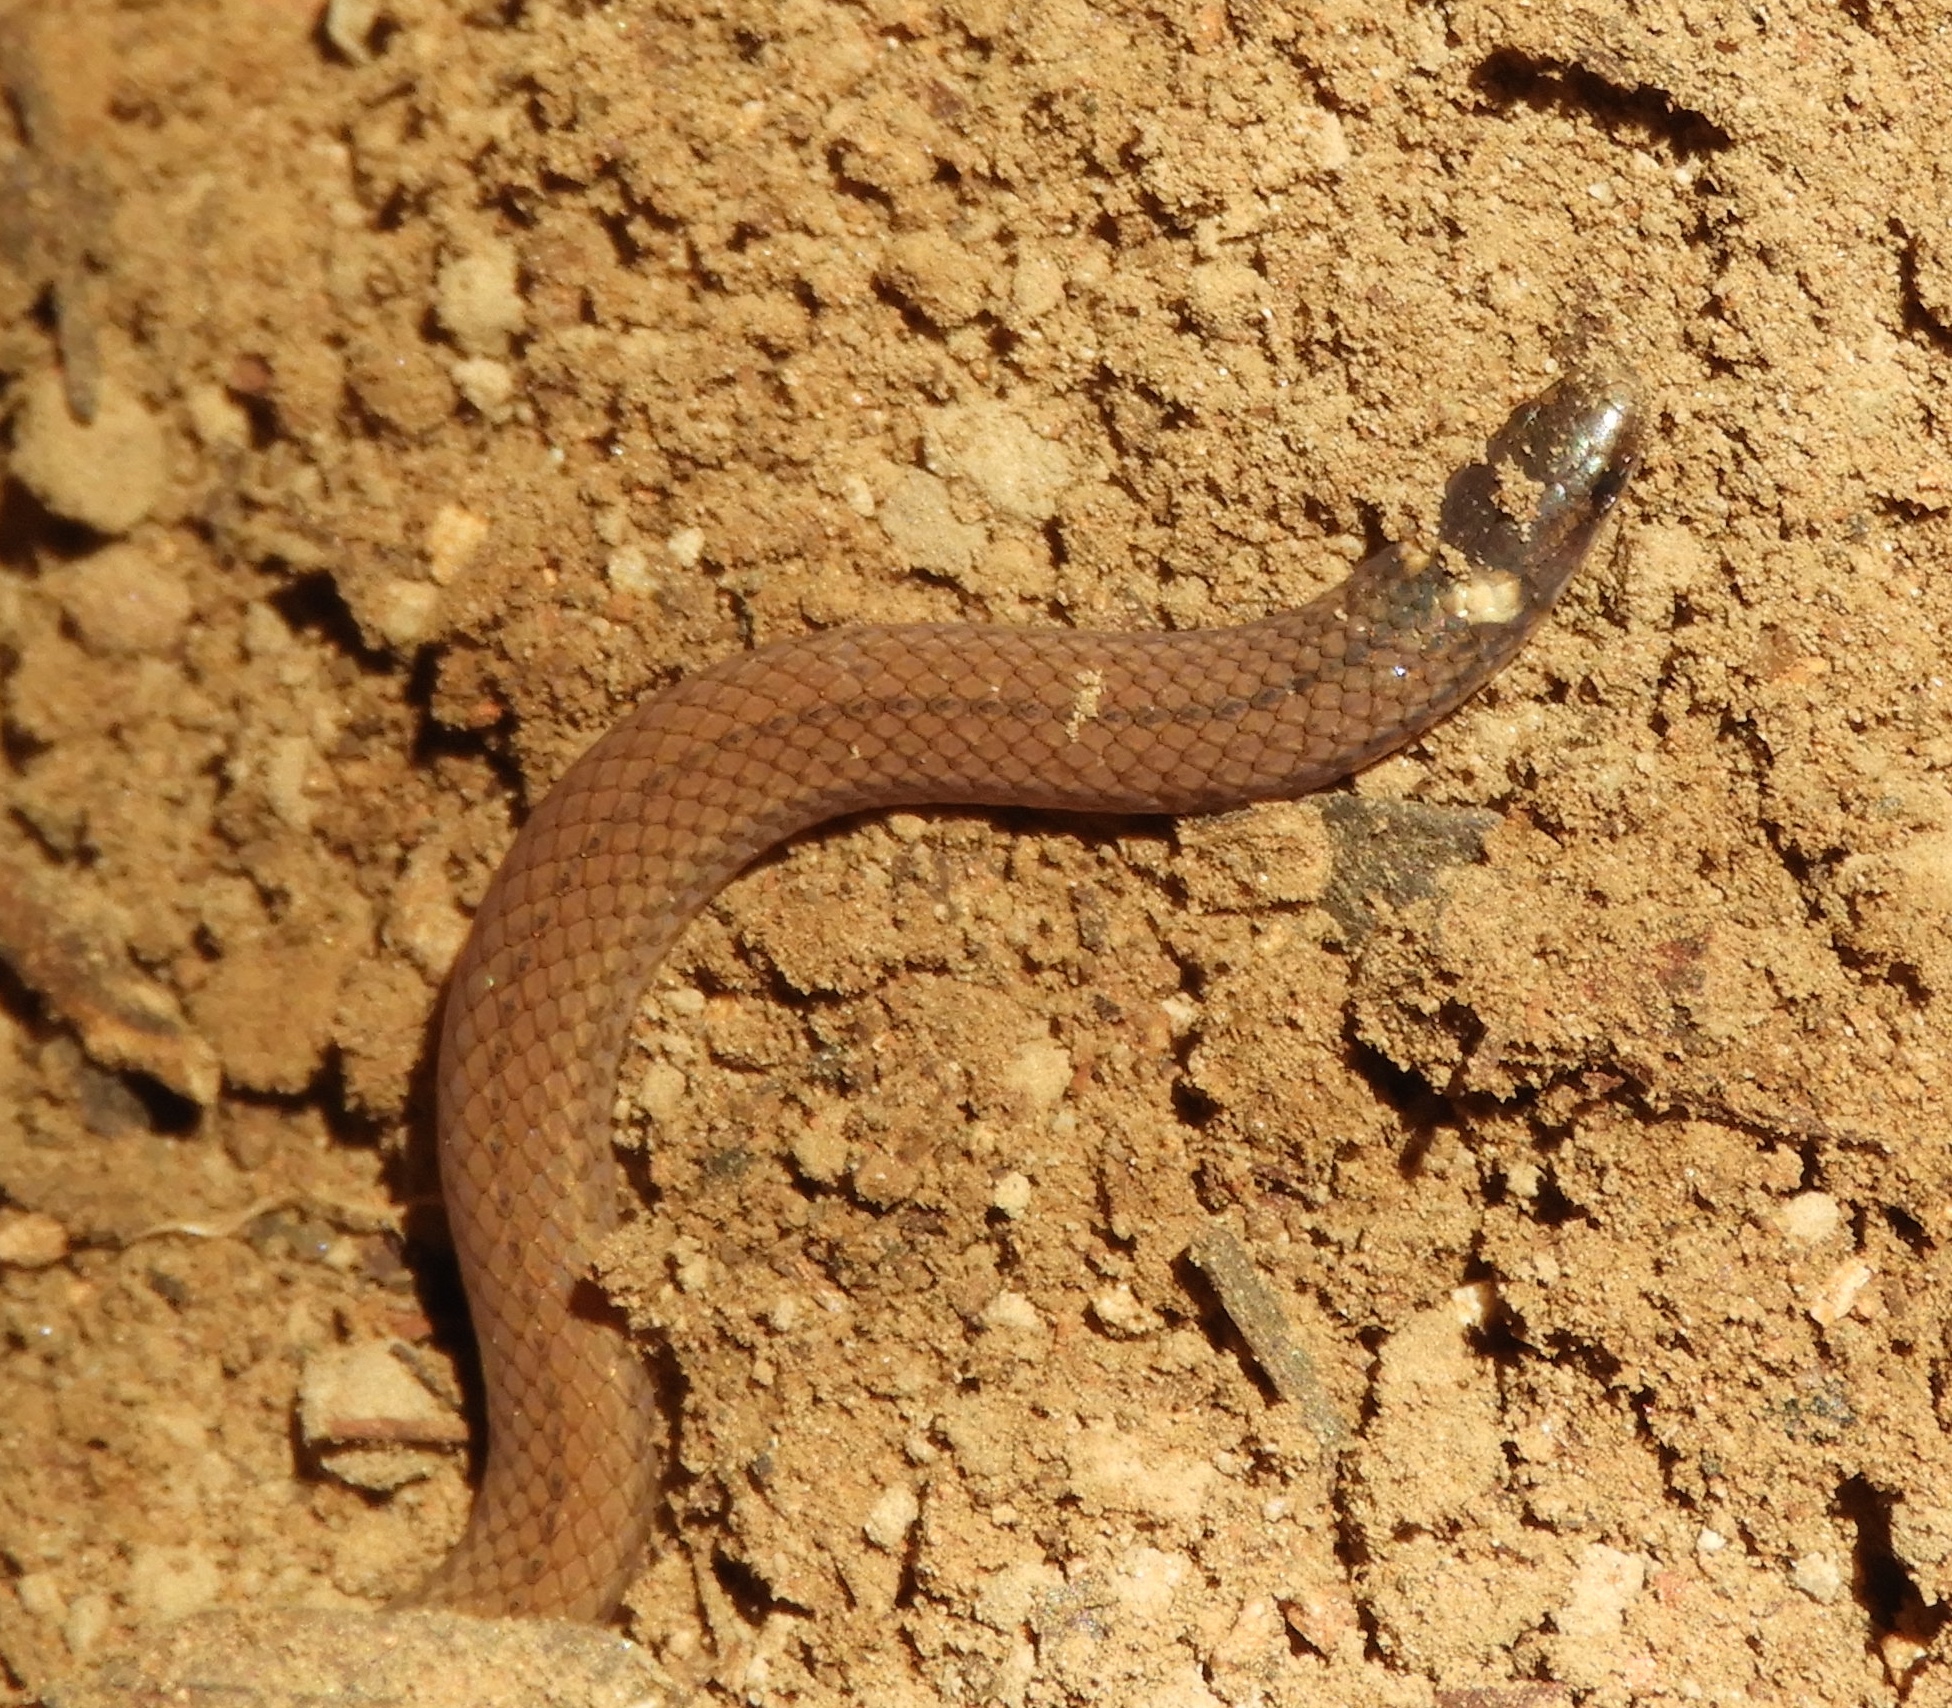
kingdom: Animalia
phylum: Chordata
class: Squamata
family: Colubridae
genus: Tantilla
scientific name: Tantilla calamarina
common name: Pacific coast centipede snake
